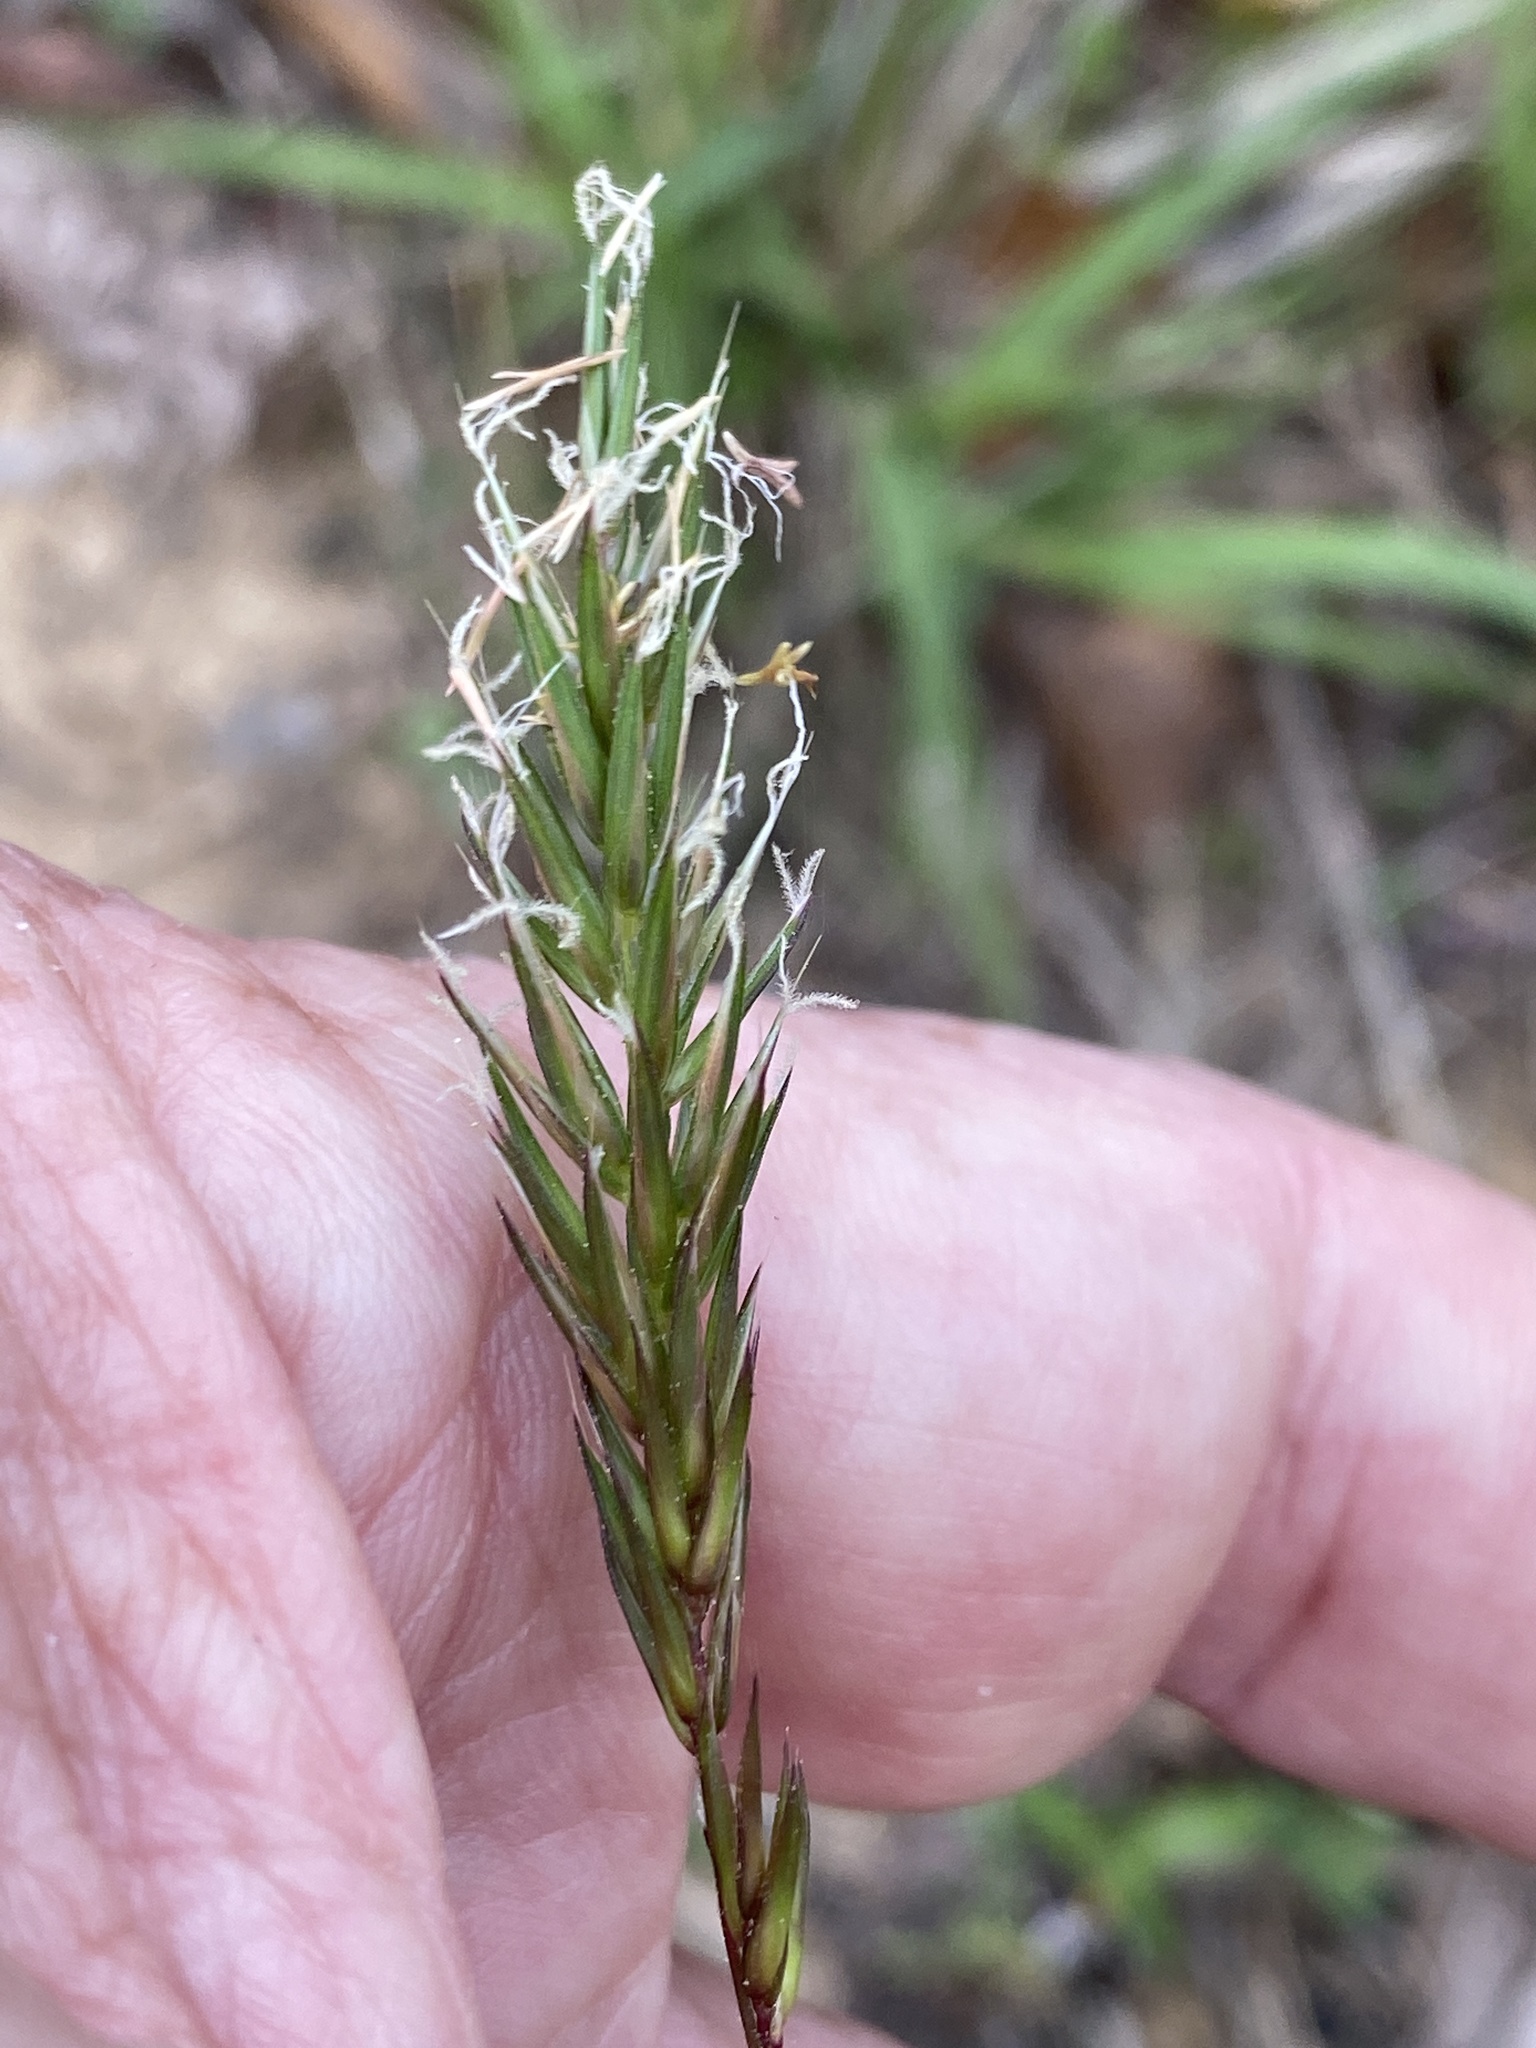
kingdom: Plantae
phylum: Tracheophyta
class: Liliopsida
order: Poales
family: Poaceae
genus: Anthoxanthum
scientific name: Anthoxanthum odoratum
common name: Sweet vernalgrass
